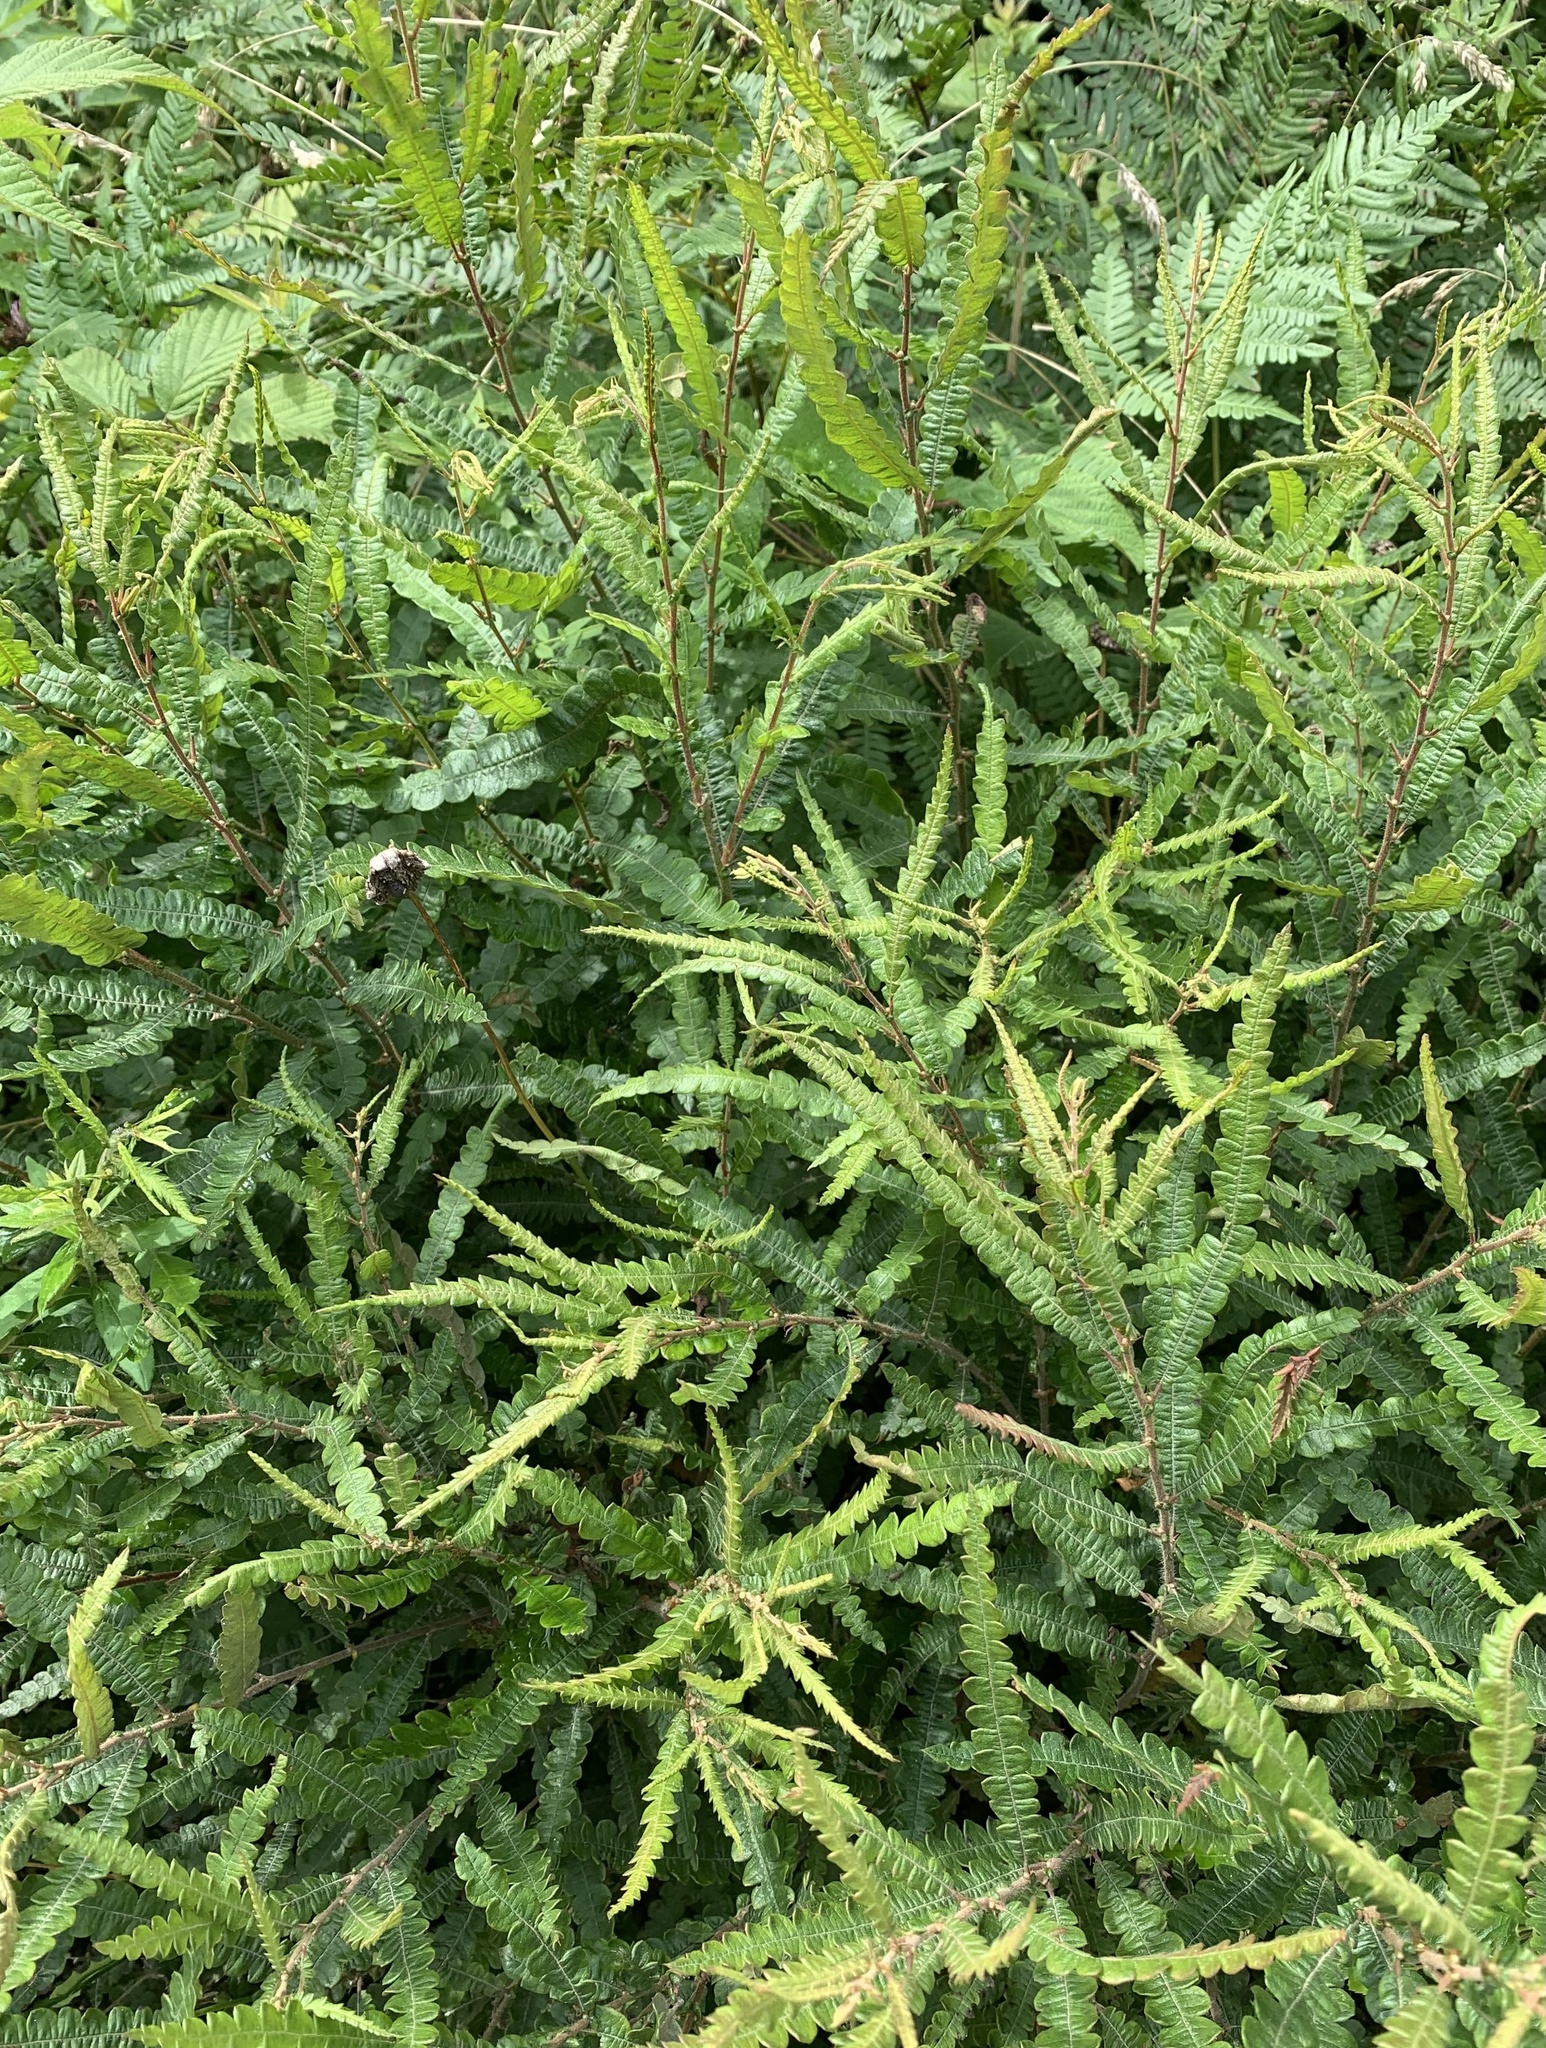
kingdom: Plantae
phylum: Tracheophyta
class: Magnoliopsida
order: Fagales
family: Myricaceae
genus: Comptonia
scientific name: Comptonia peregrina
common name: Sweet-fern
